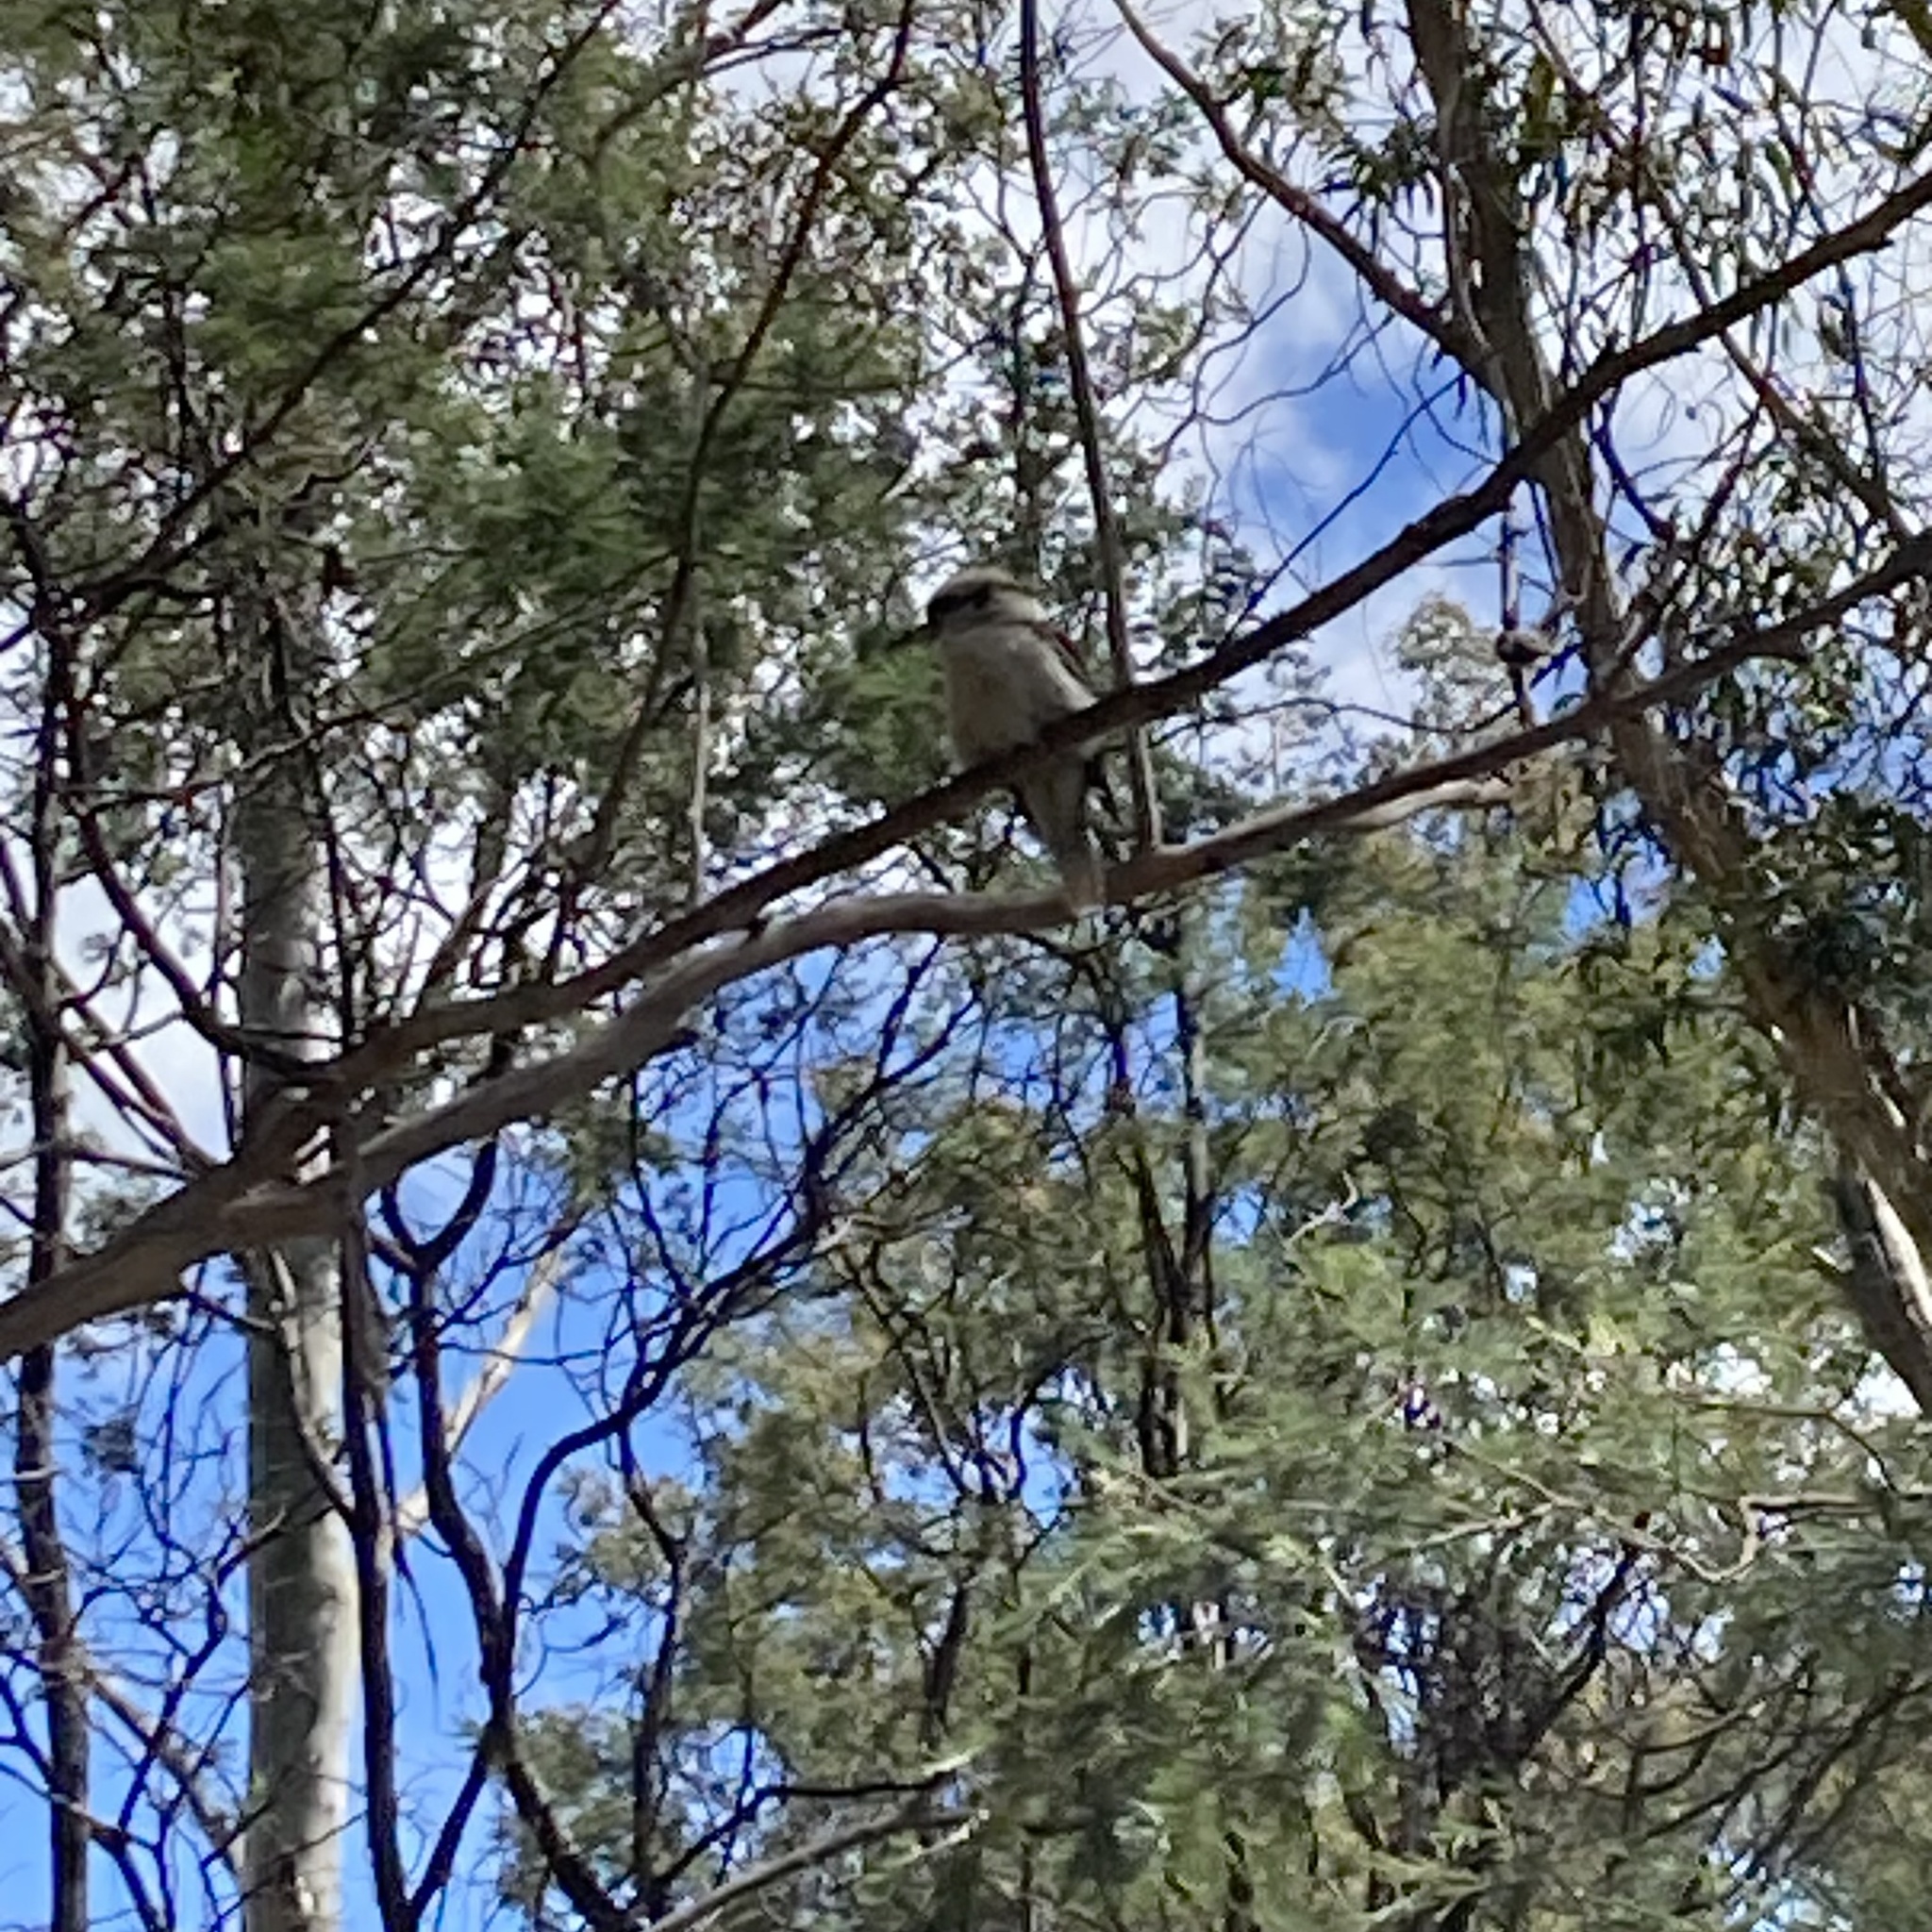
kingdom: Animalia
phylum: Chordata
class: Aves
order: Coraciiformes
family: Alcedinidae
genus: Dacelo
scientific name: Dacelo novaeguineae
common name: Laughing kookaburra
